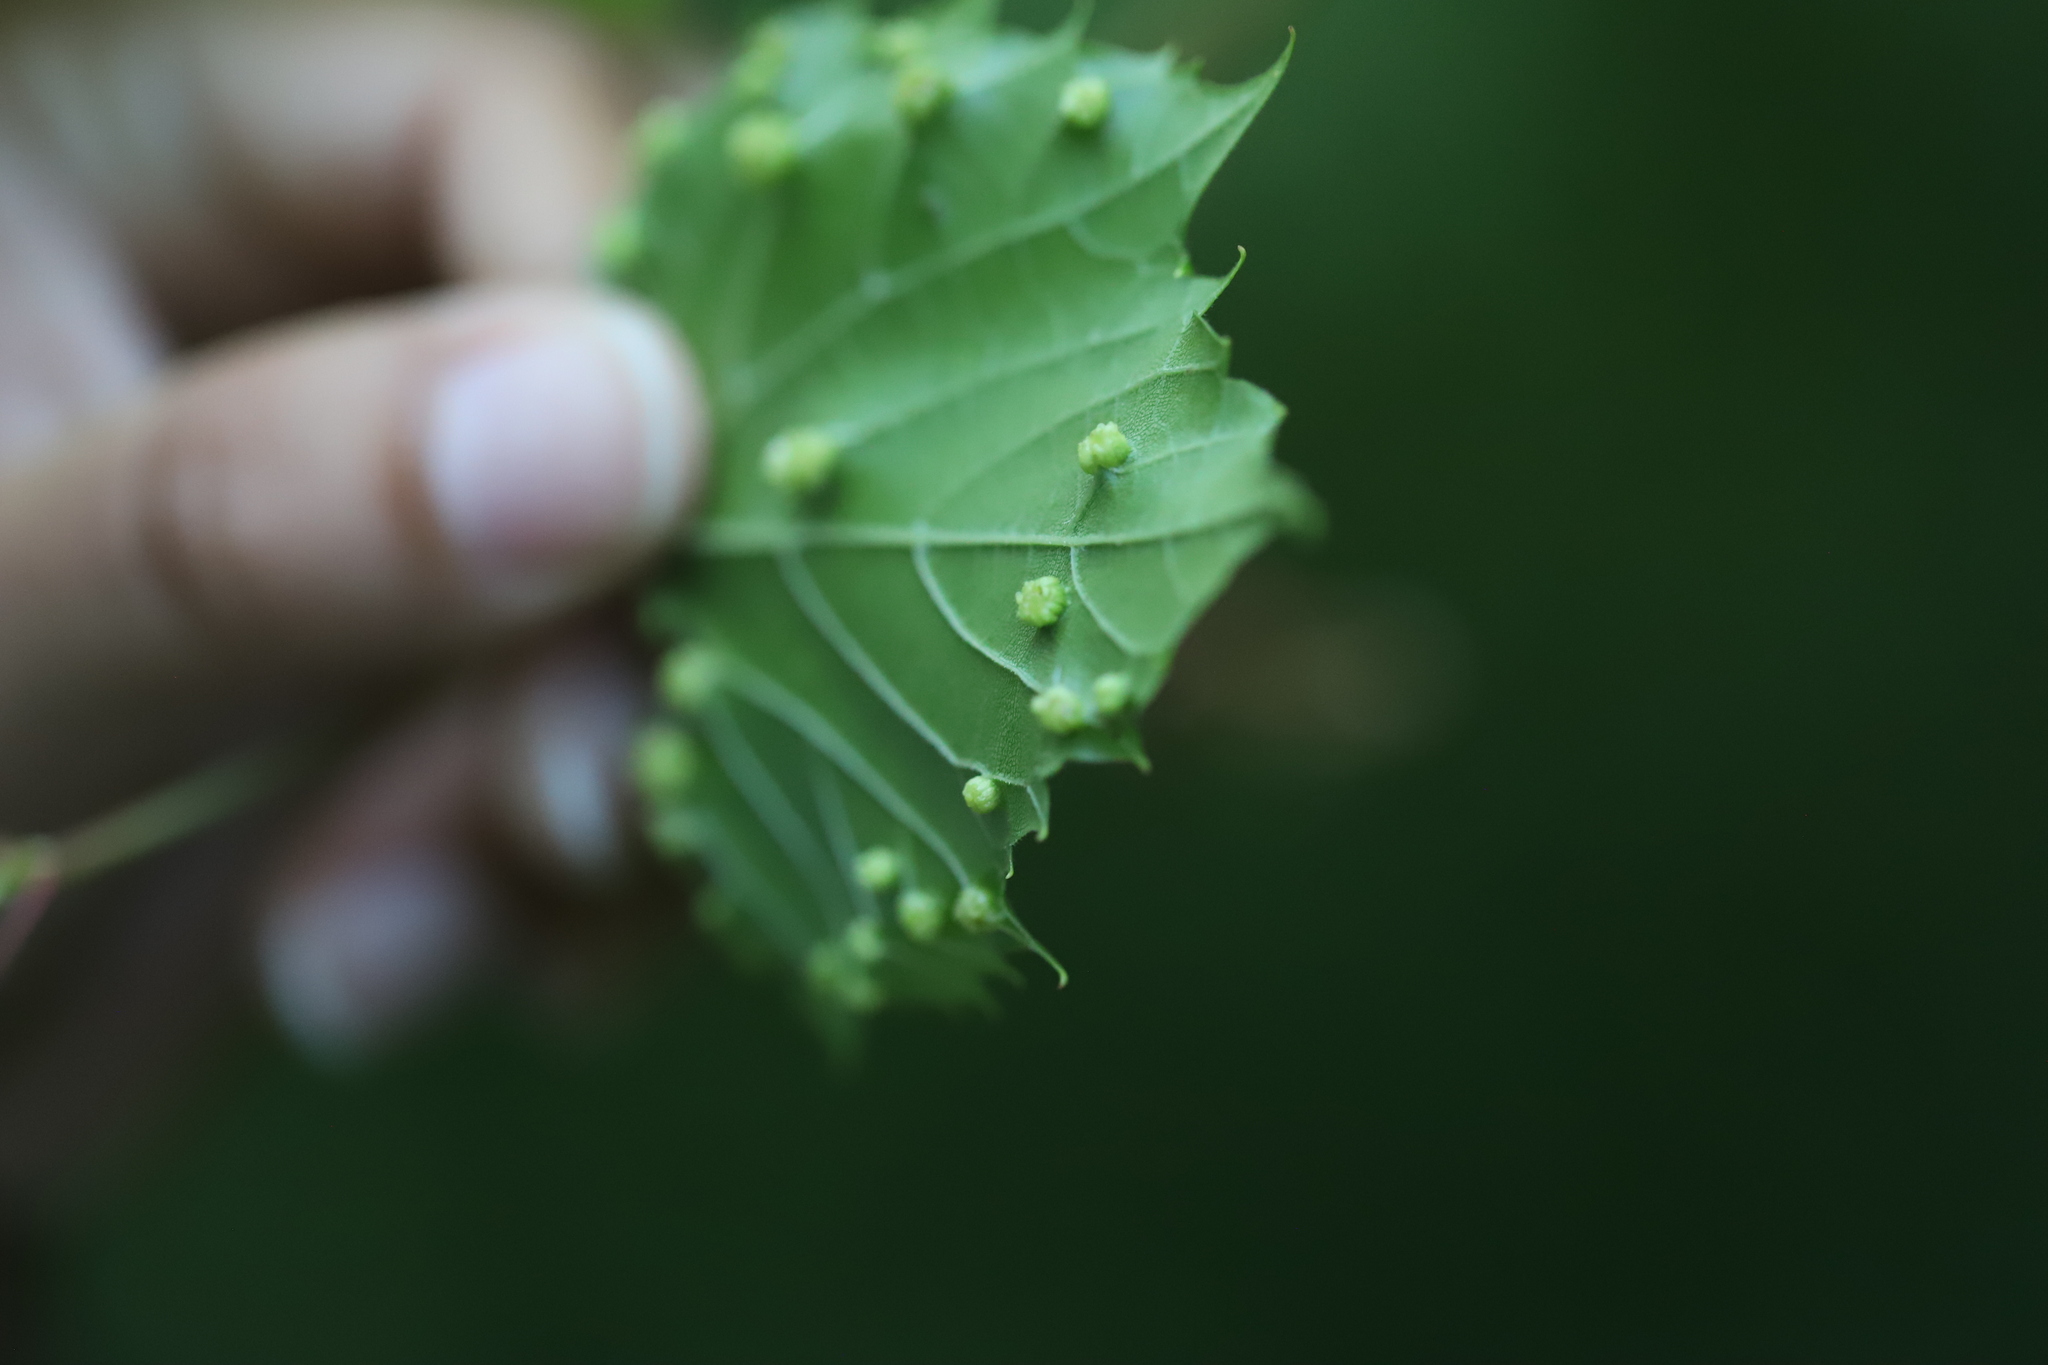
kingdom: Animalia
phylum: Arthropoda
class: Insecta
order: Hemiptera
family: Phylloxeridae
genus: Daktulosphaira
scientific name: Daktulosphaira vitifoliae
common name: Grape phylloxera
